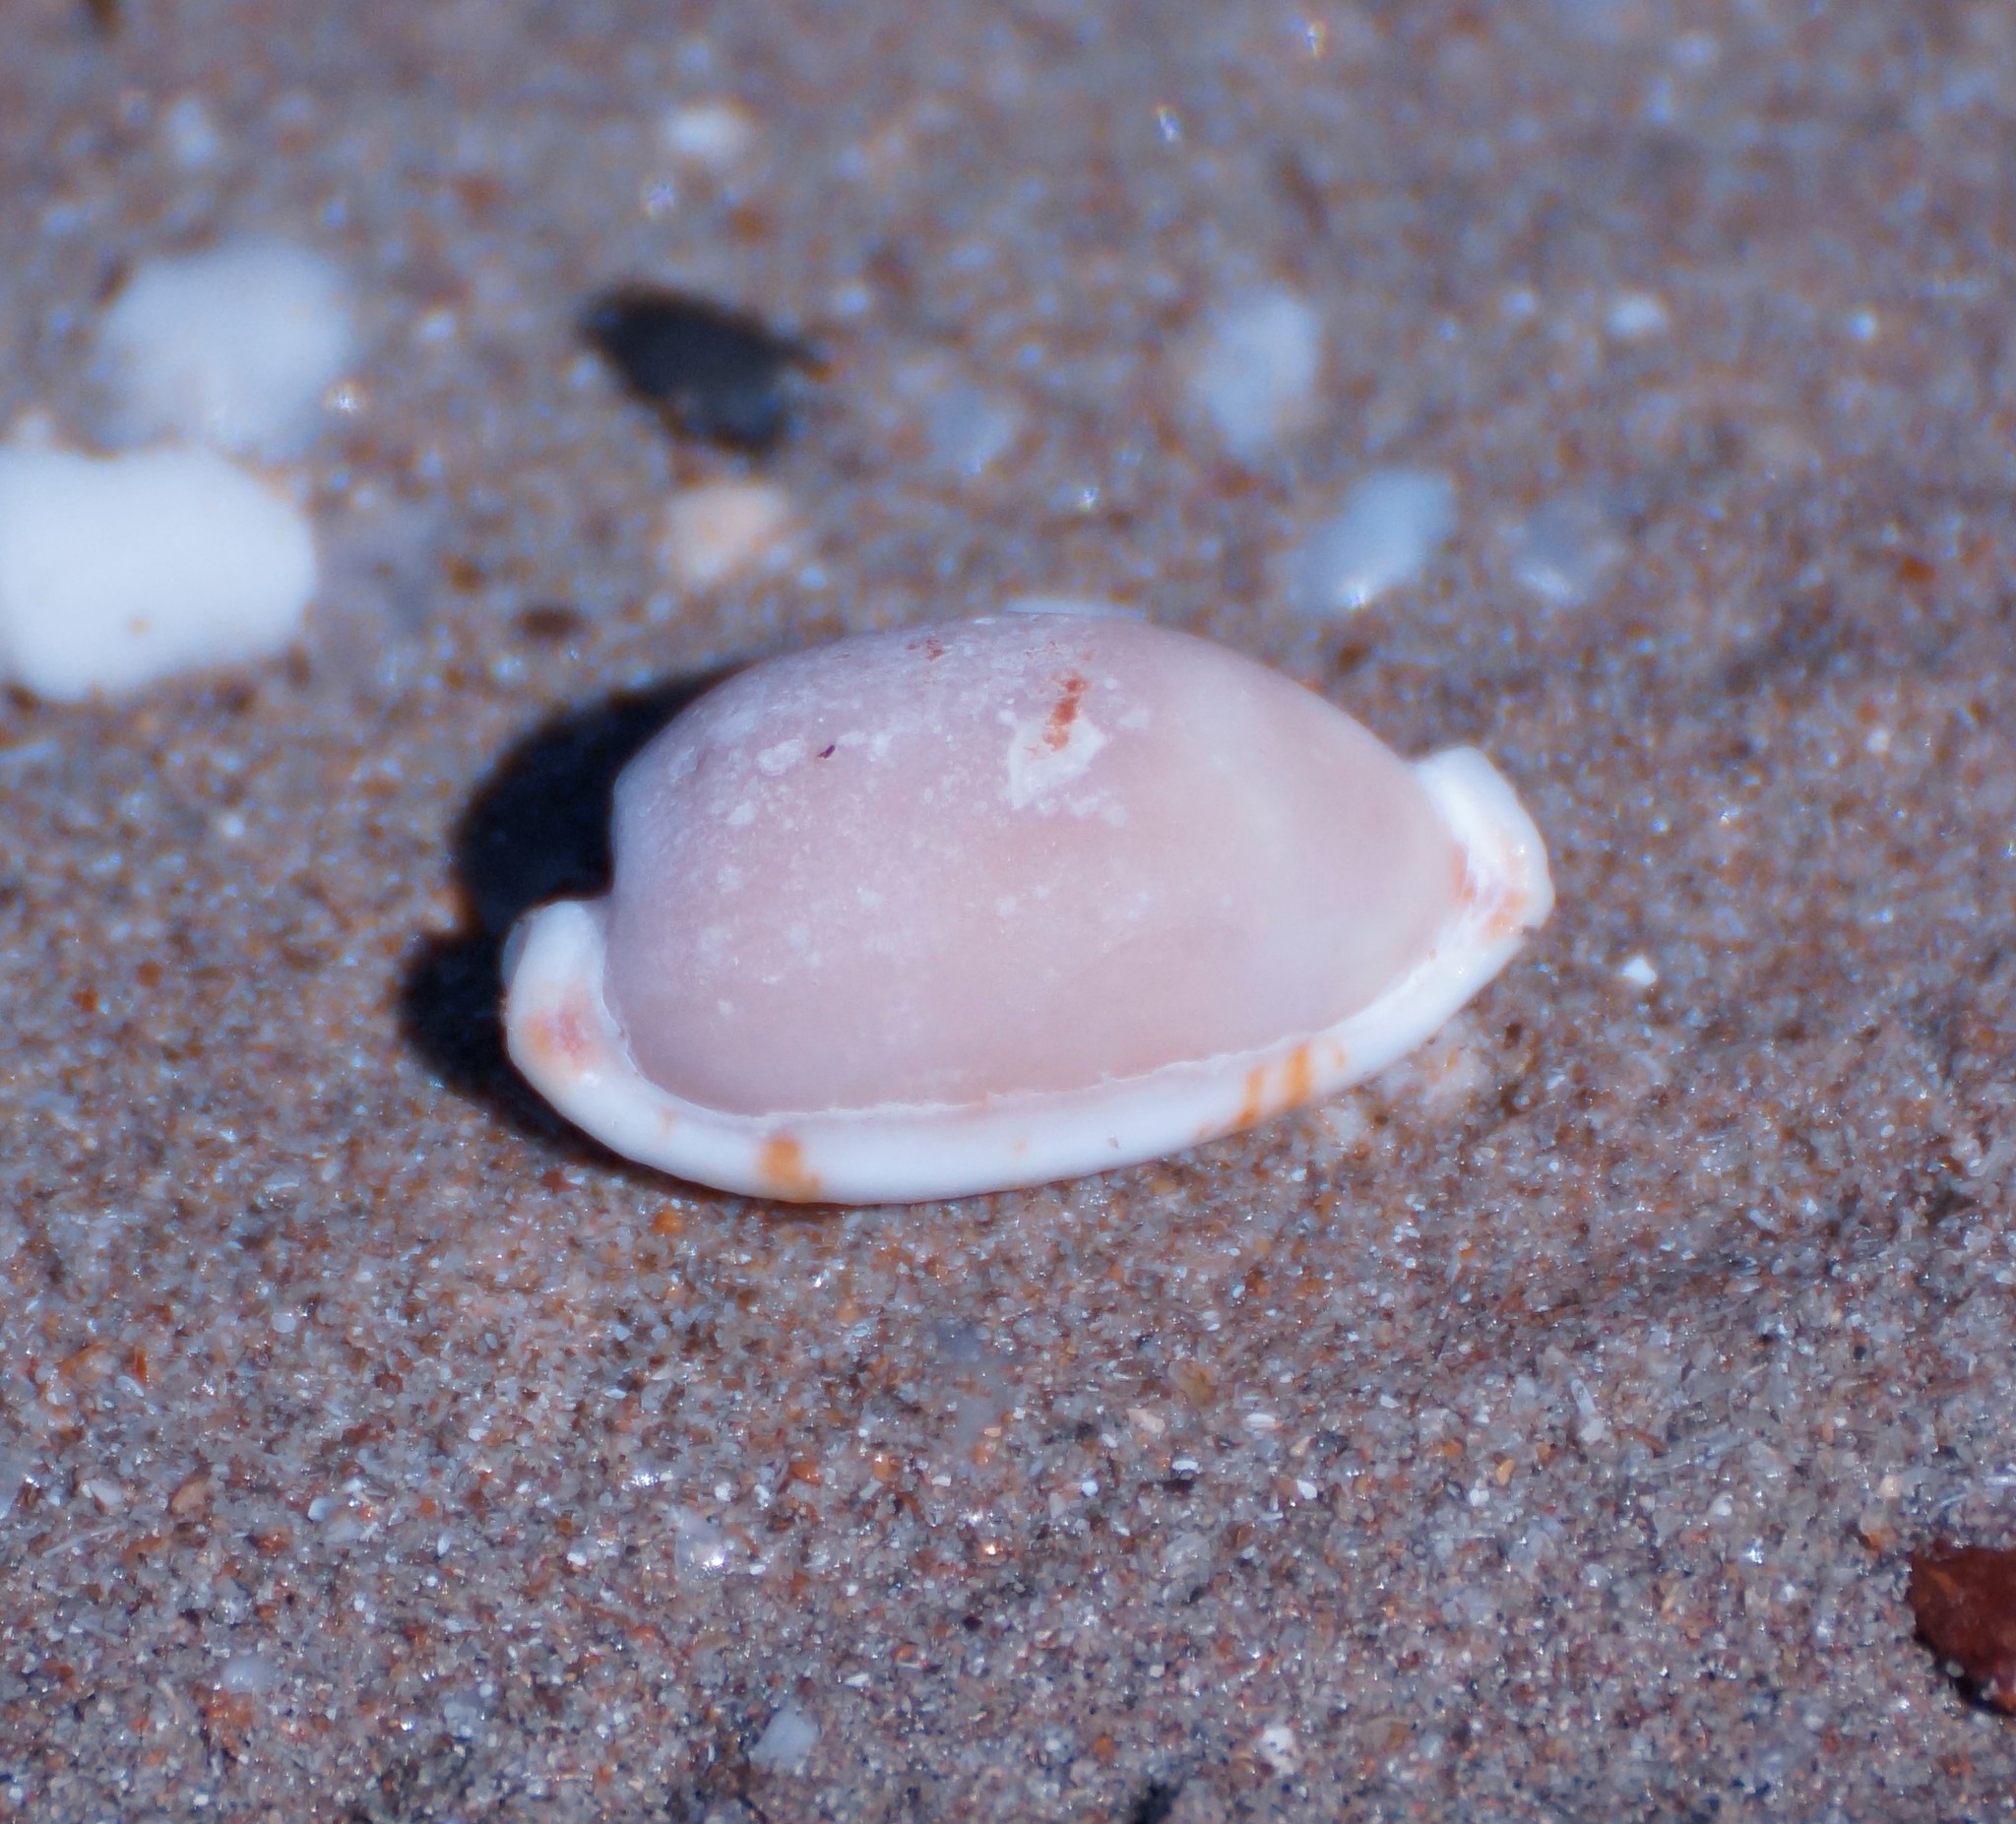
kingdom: Animalia
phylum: Mollusca
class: Gastropoda
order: Littorinimorpha
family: Cypraeidae
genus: Bistolida
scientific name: Bistolida stolida
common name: Stolid cowrie
